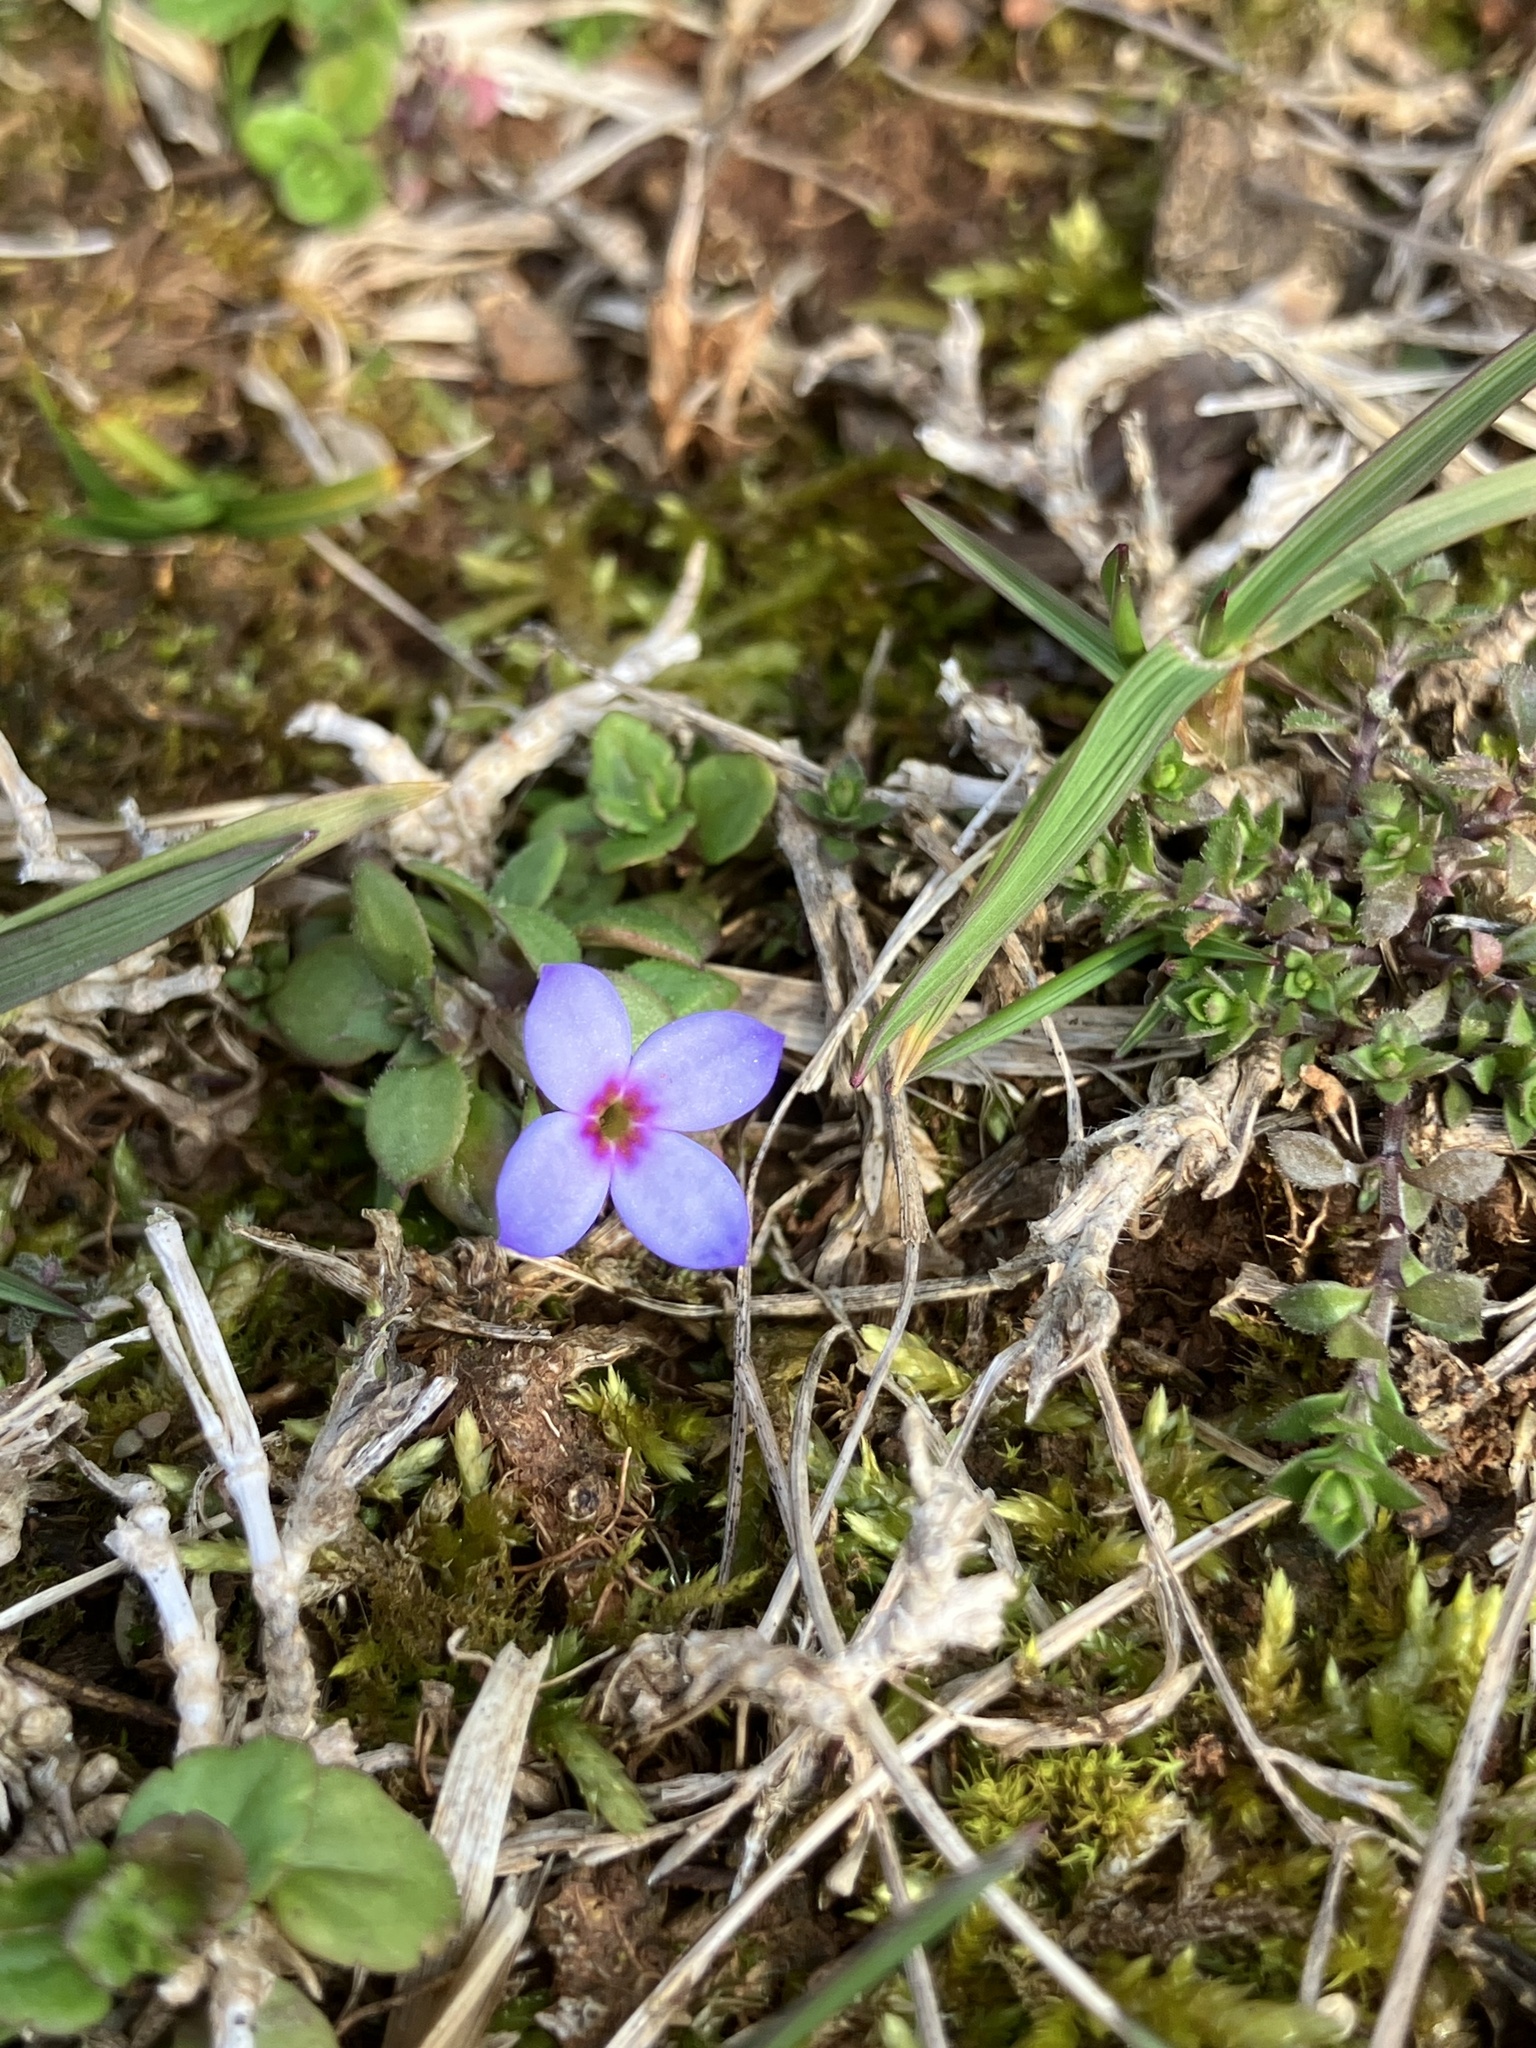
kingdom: Plantae
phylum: Tracheophyta
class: Magnoliopsida
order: Gentianales
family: Rubiaceae
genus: Houstonia
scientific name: Houstonia pusilla
